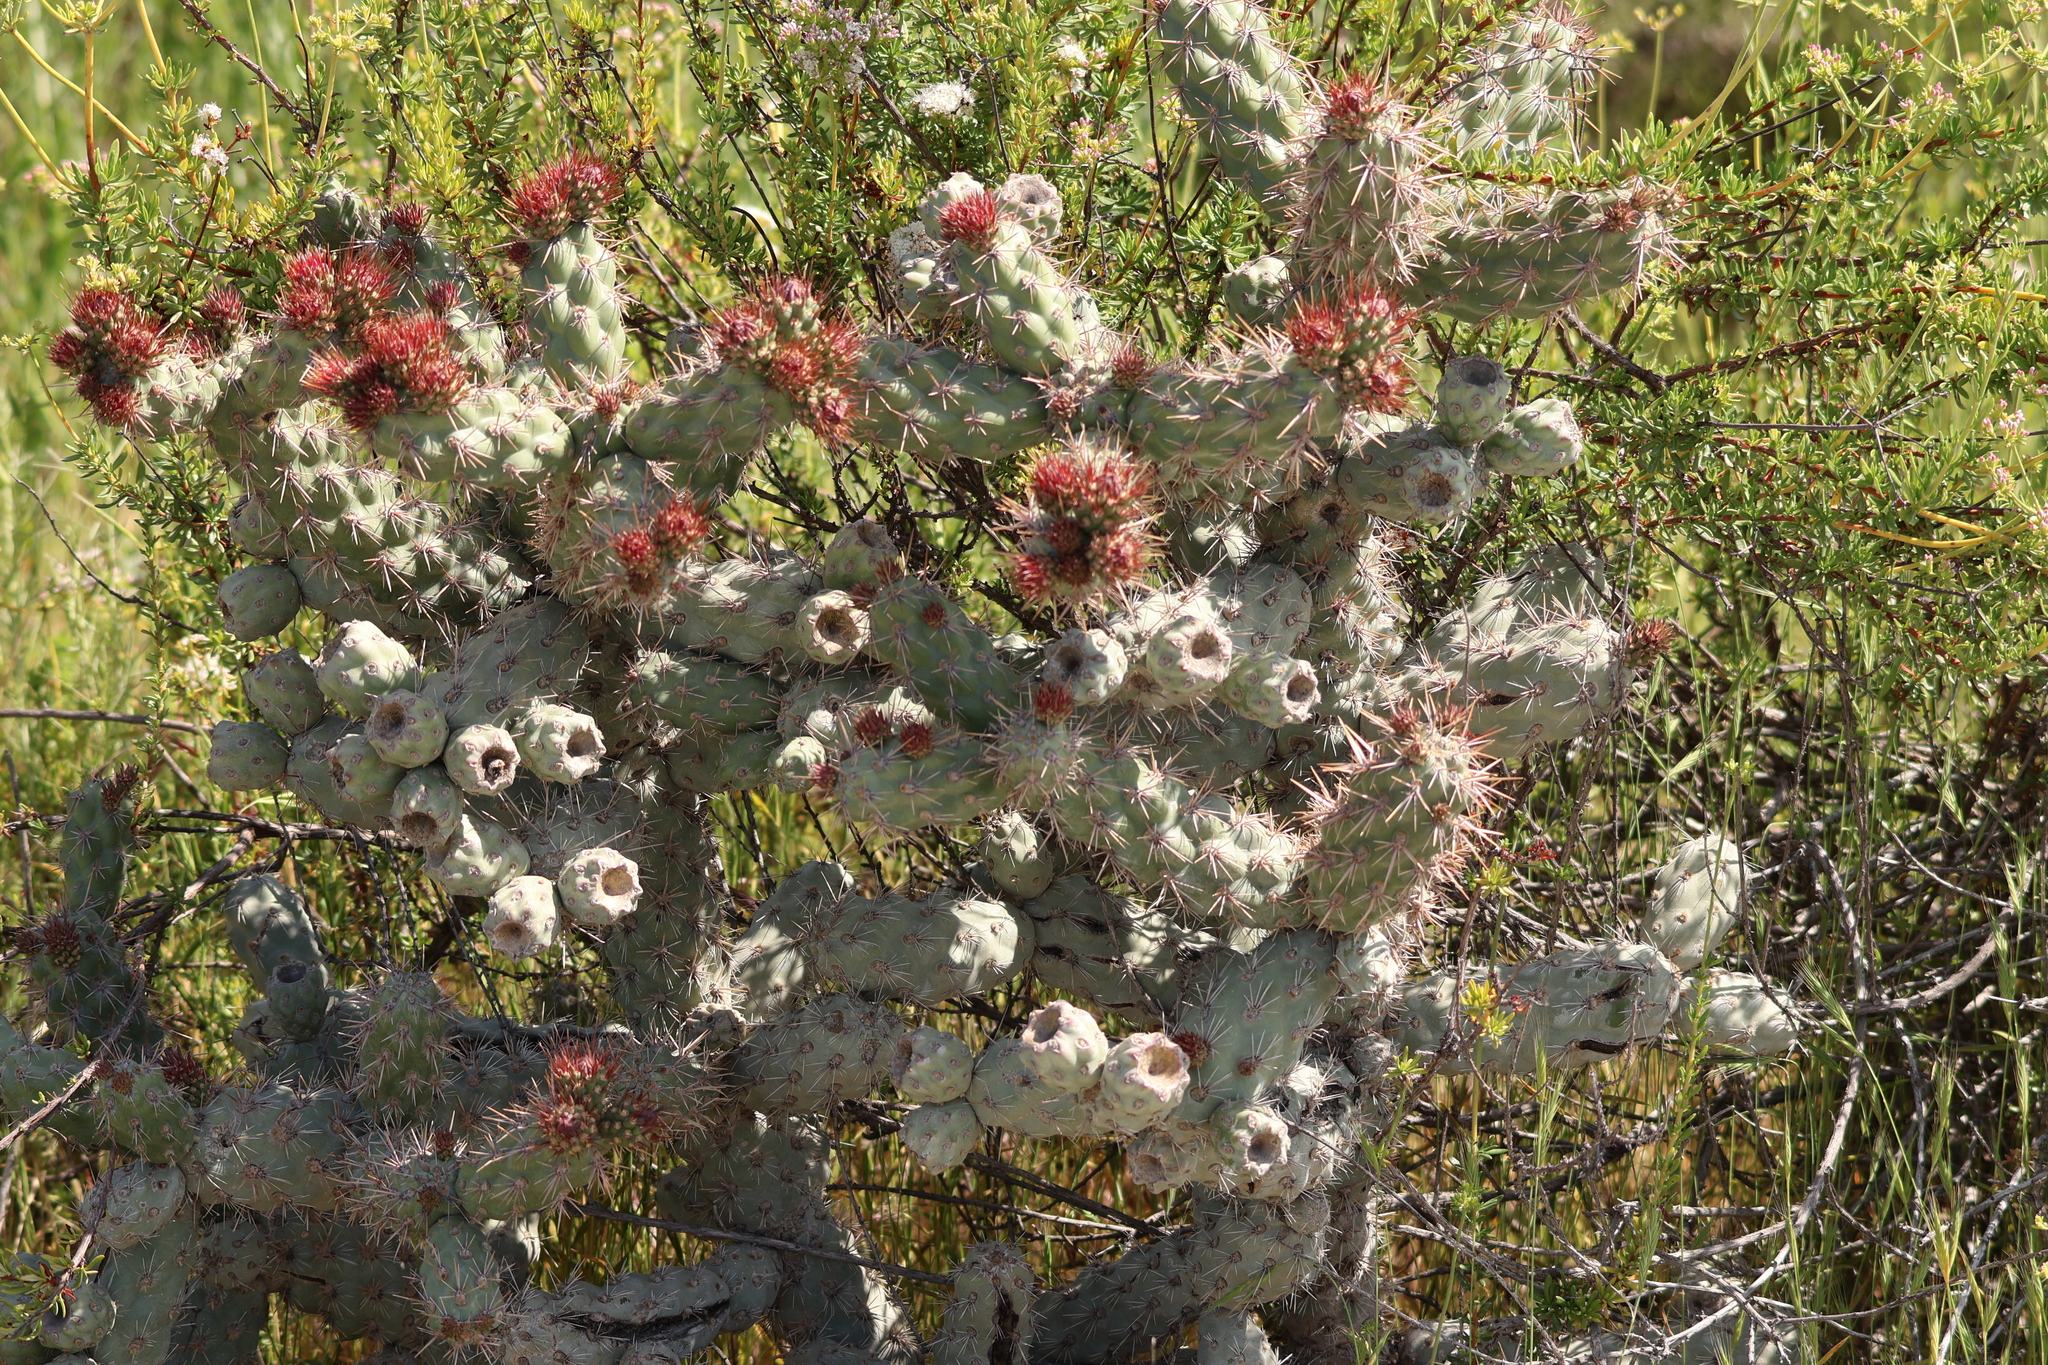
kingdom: Plantae
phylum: Tracheophyta
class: Magnoliopsida
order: Caryophyllales
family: Cactaceae
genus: Cylindropuntia
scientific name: Cylindropuntia prolifera
